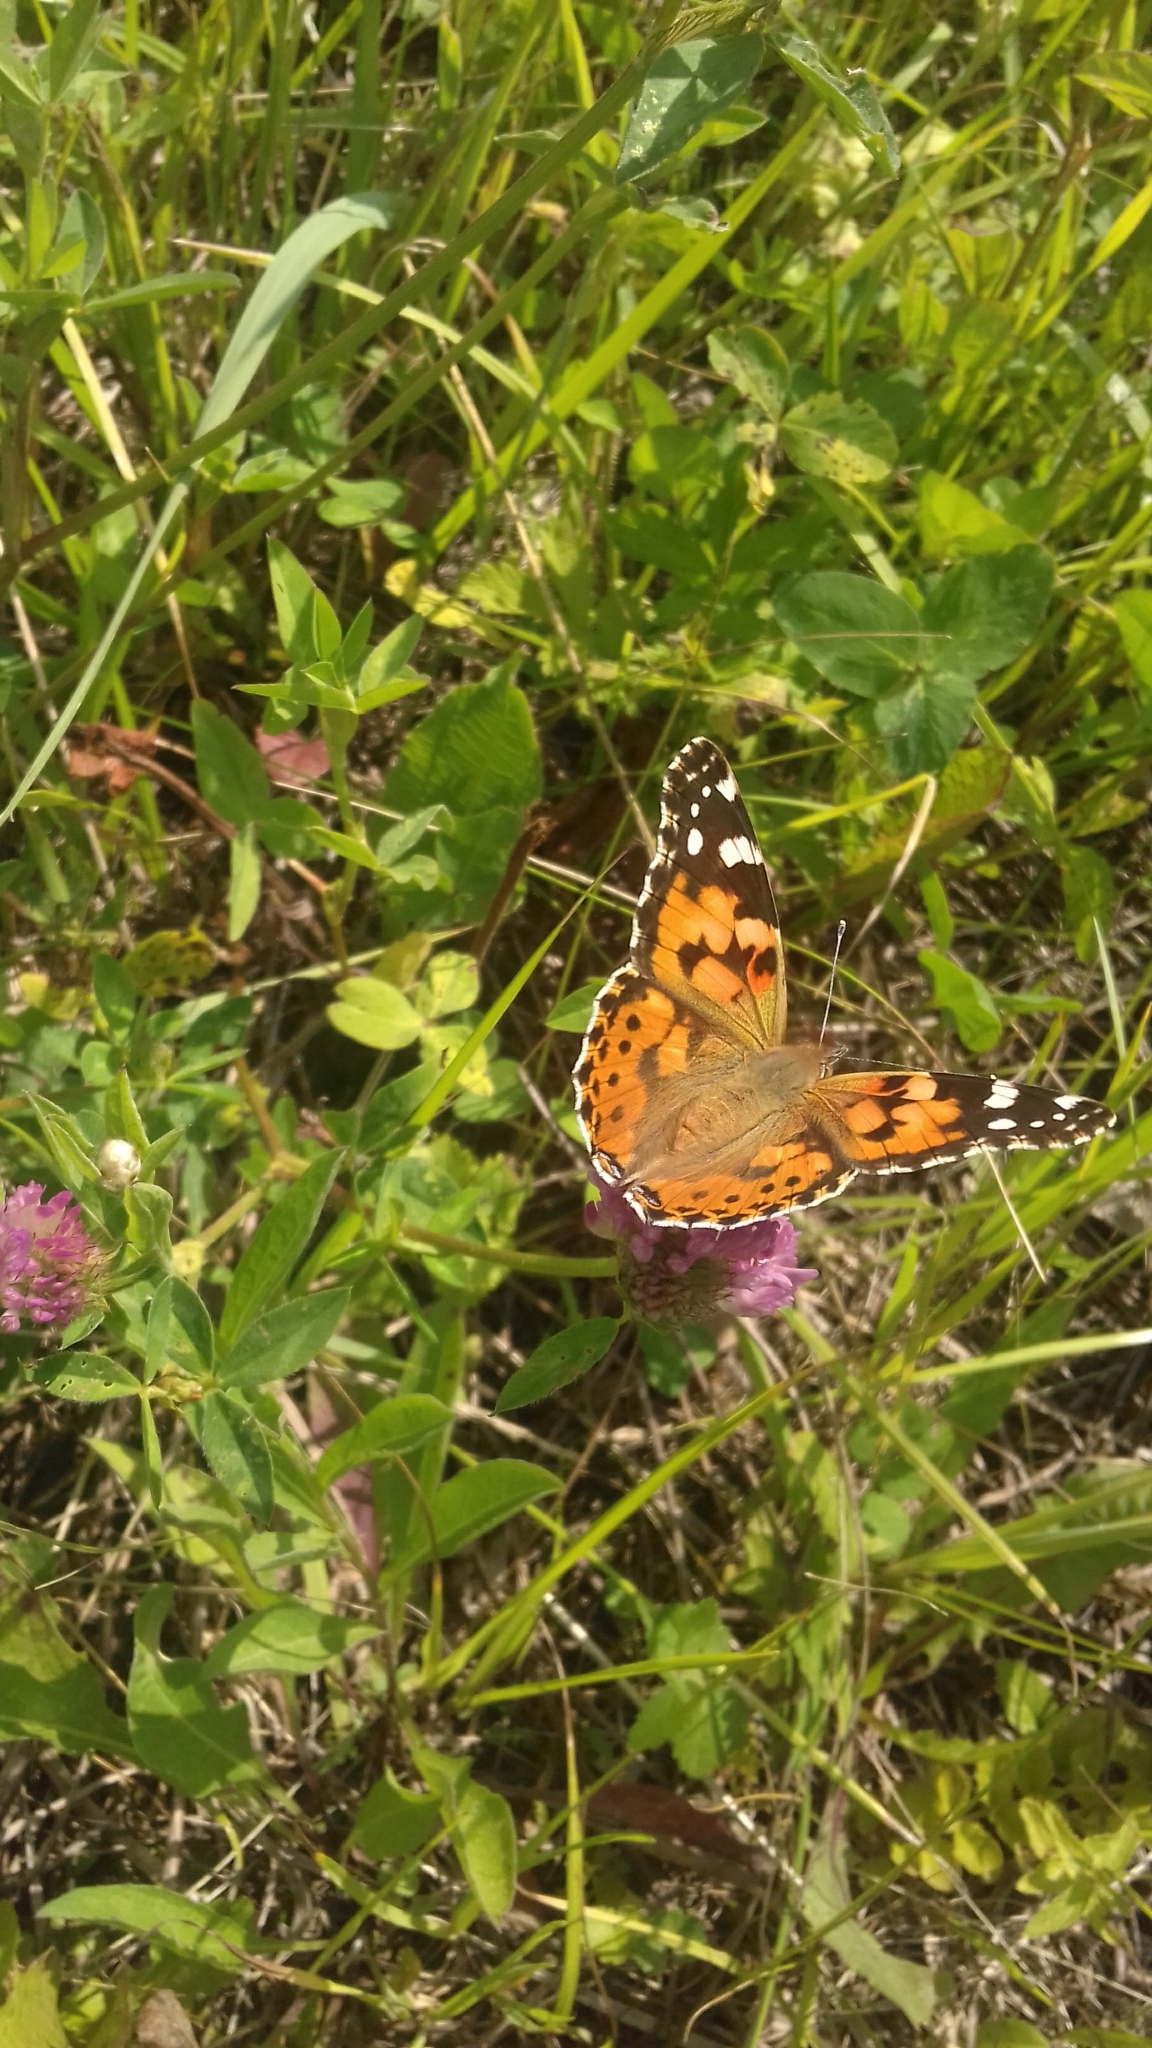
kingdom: Animalia
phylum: Arthropoda
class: Insecta
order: Lepidoptera
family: Nymphalidae
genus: Vanessa
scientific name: Vanessa cardui
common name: Painted lady
